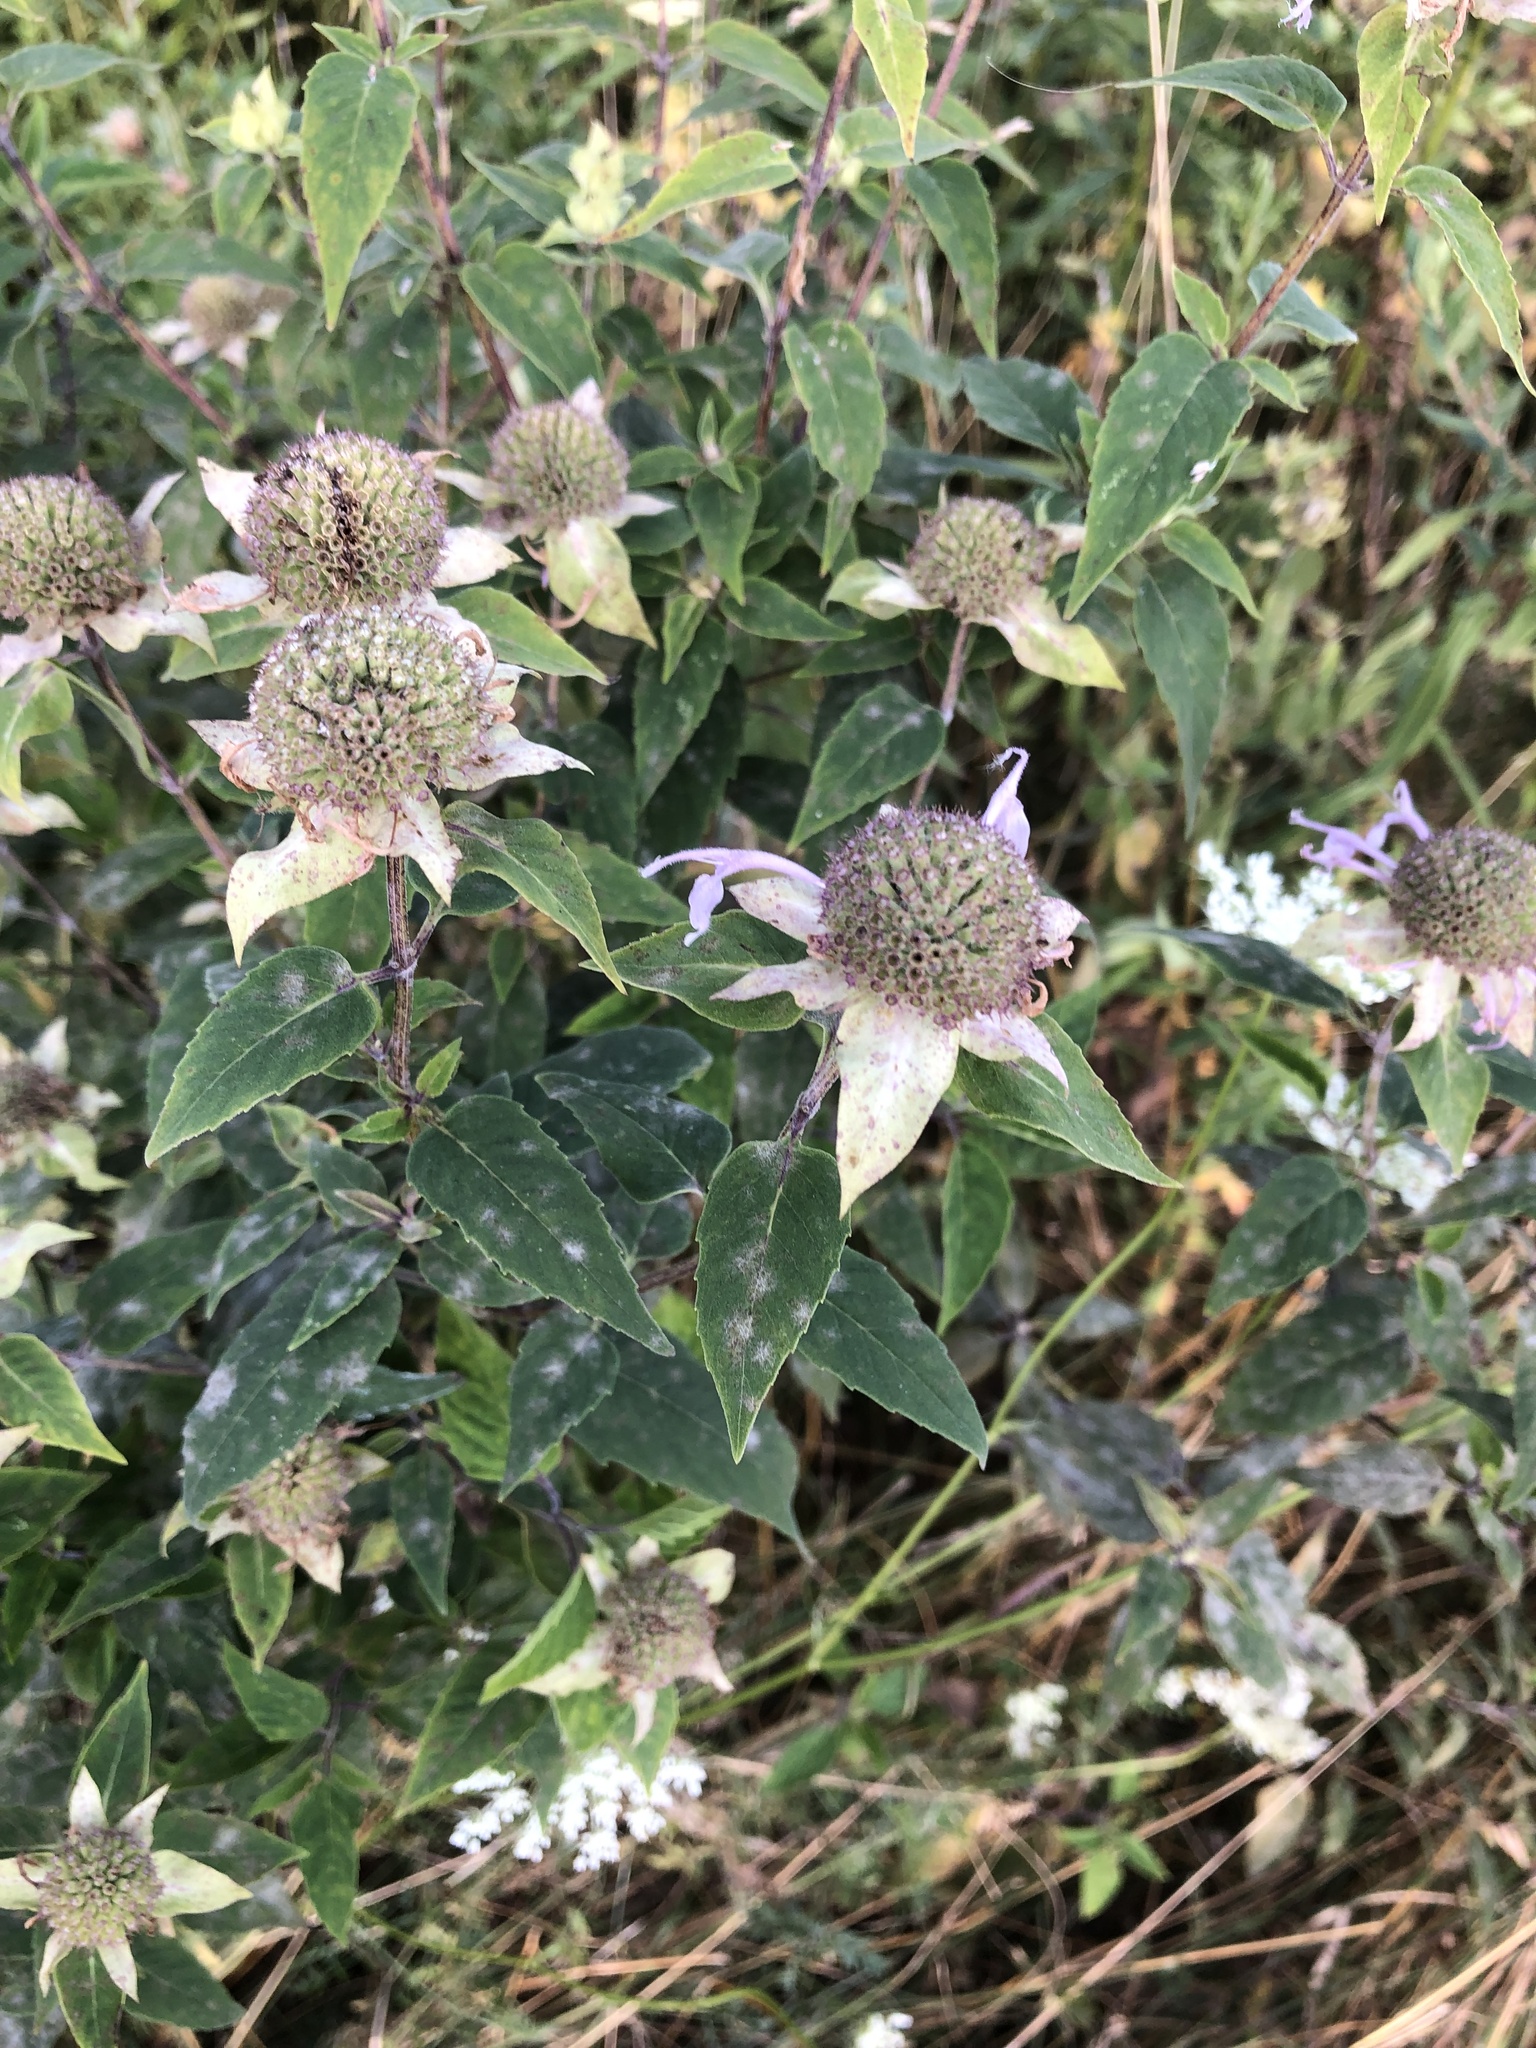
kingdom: Plantae
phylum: Tracheophyta
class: Magnoliopsida
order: Lamiales
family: Lamiaceae
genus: Monarda
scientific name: Monarda fistulosa
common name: Purple beebalm
